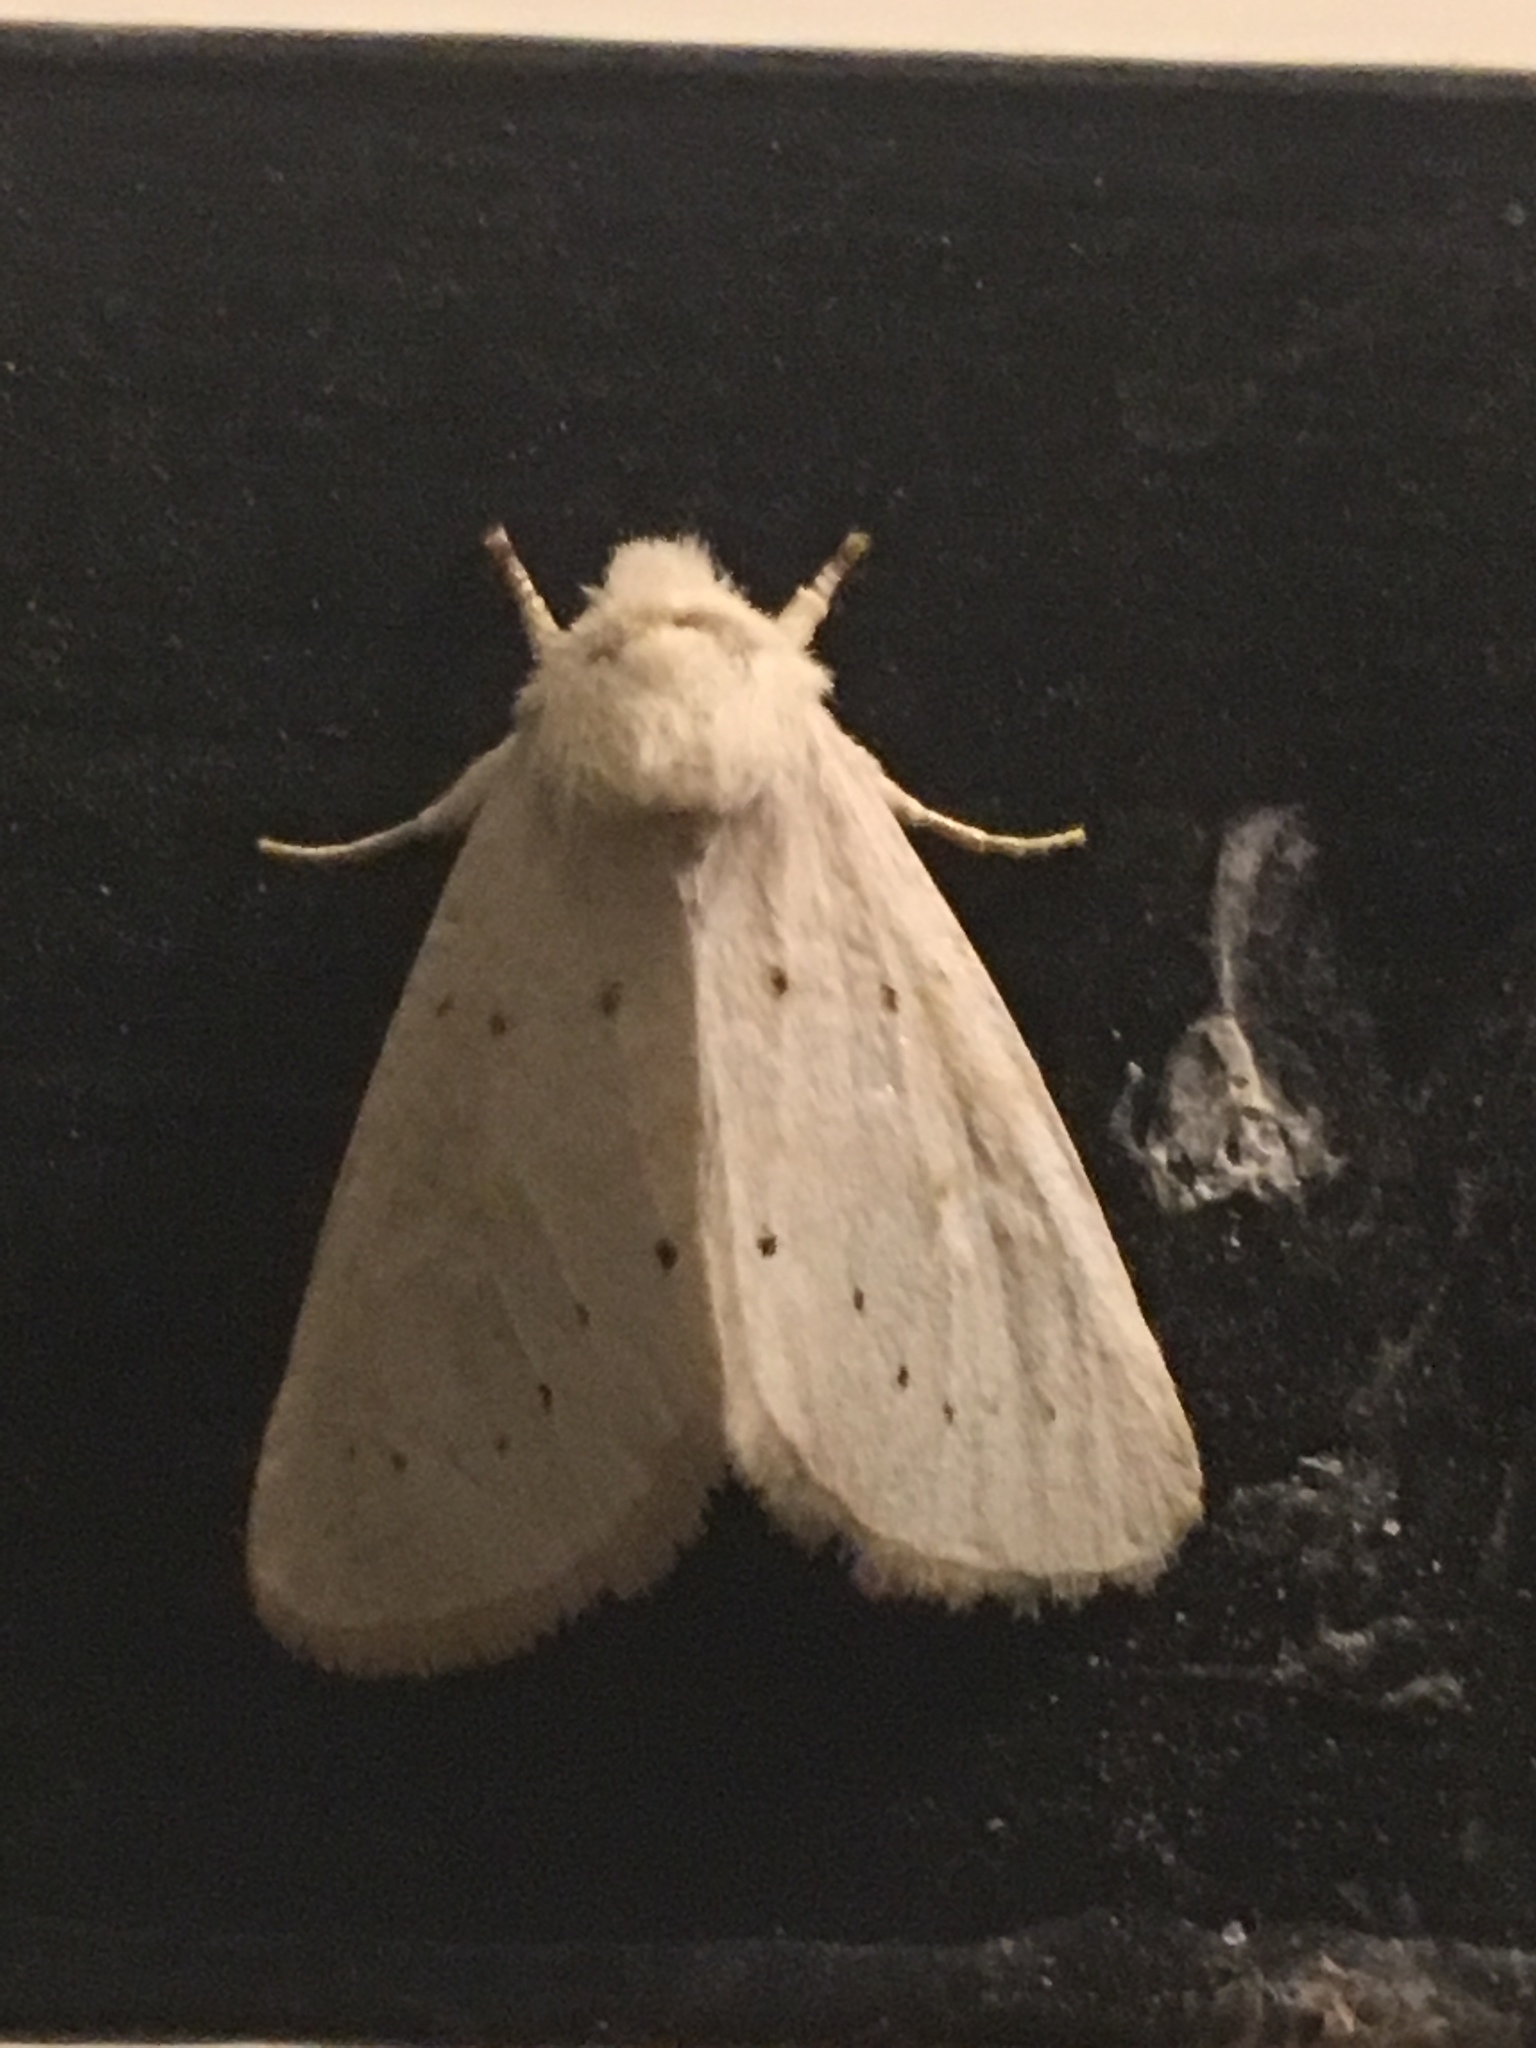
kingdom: Animalia
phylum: Arthropoda
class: Insecta
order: Lepidoptera
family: Noctuidae
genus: Oslaria
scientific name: Oslaria pura
